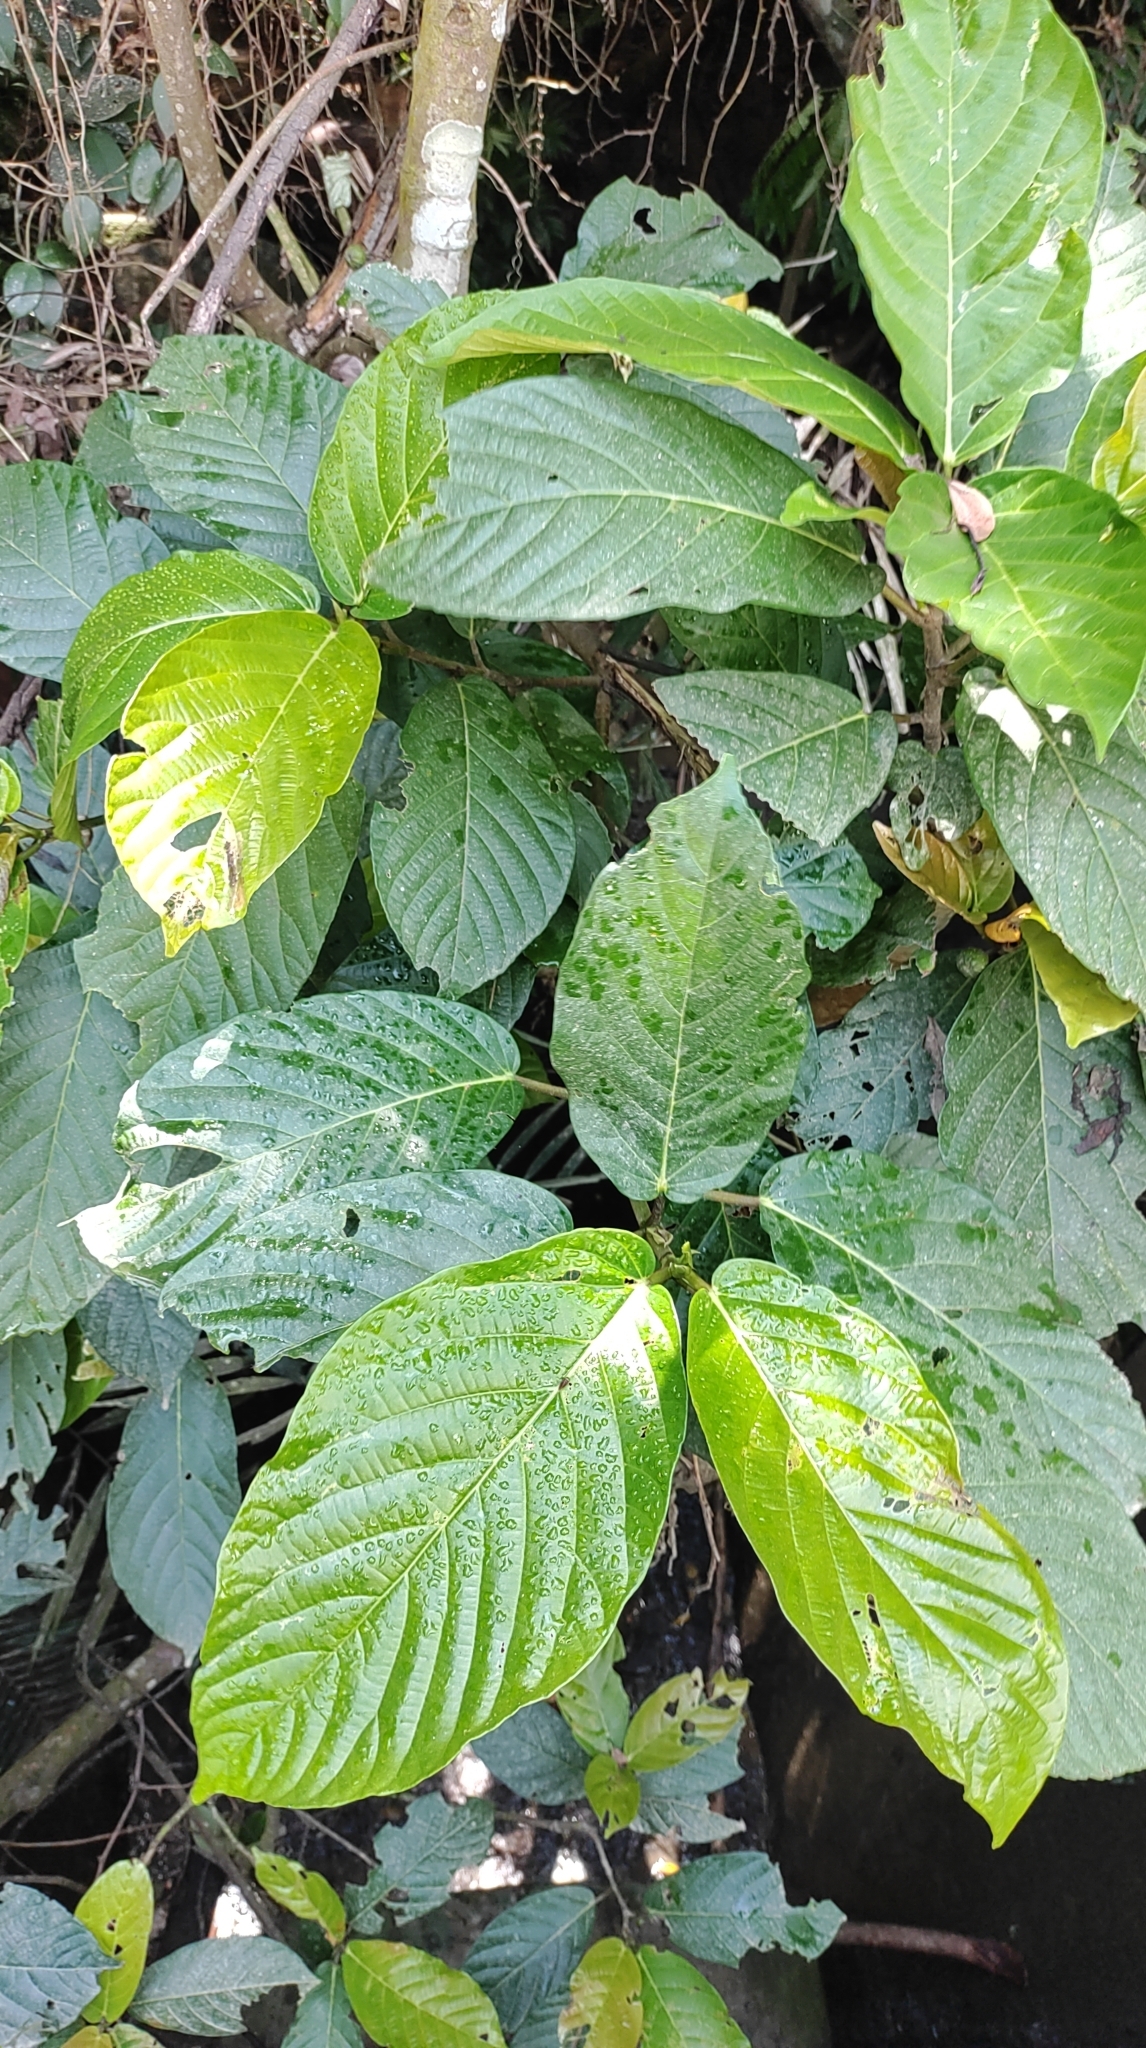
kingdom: Plantae
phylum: Tracheophyta
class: Magnoliopsida
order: Rosales
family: Moraceae
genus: Ficus
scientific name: Ficus benguetensis
